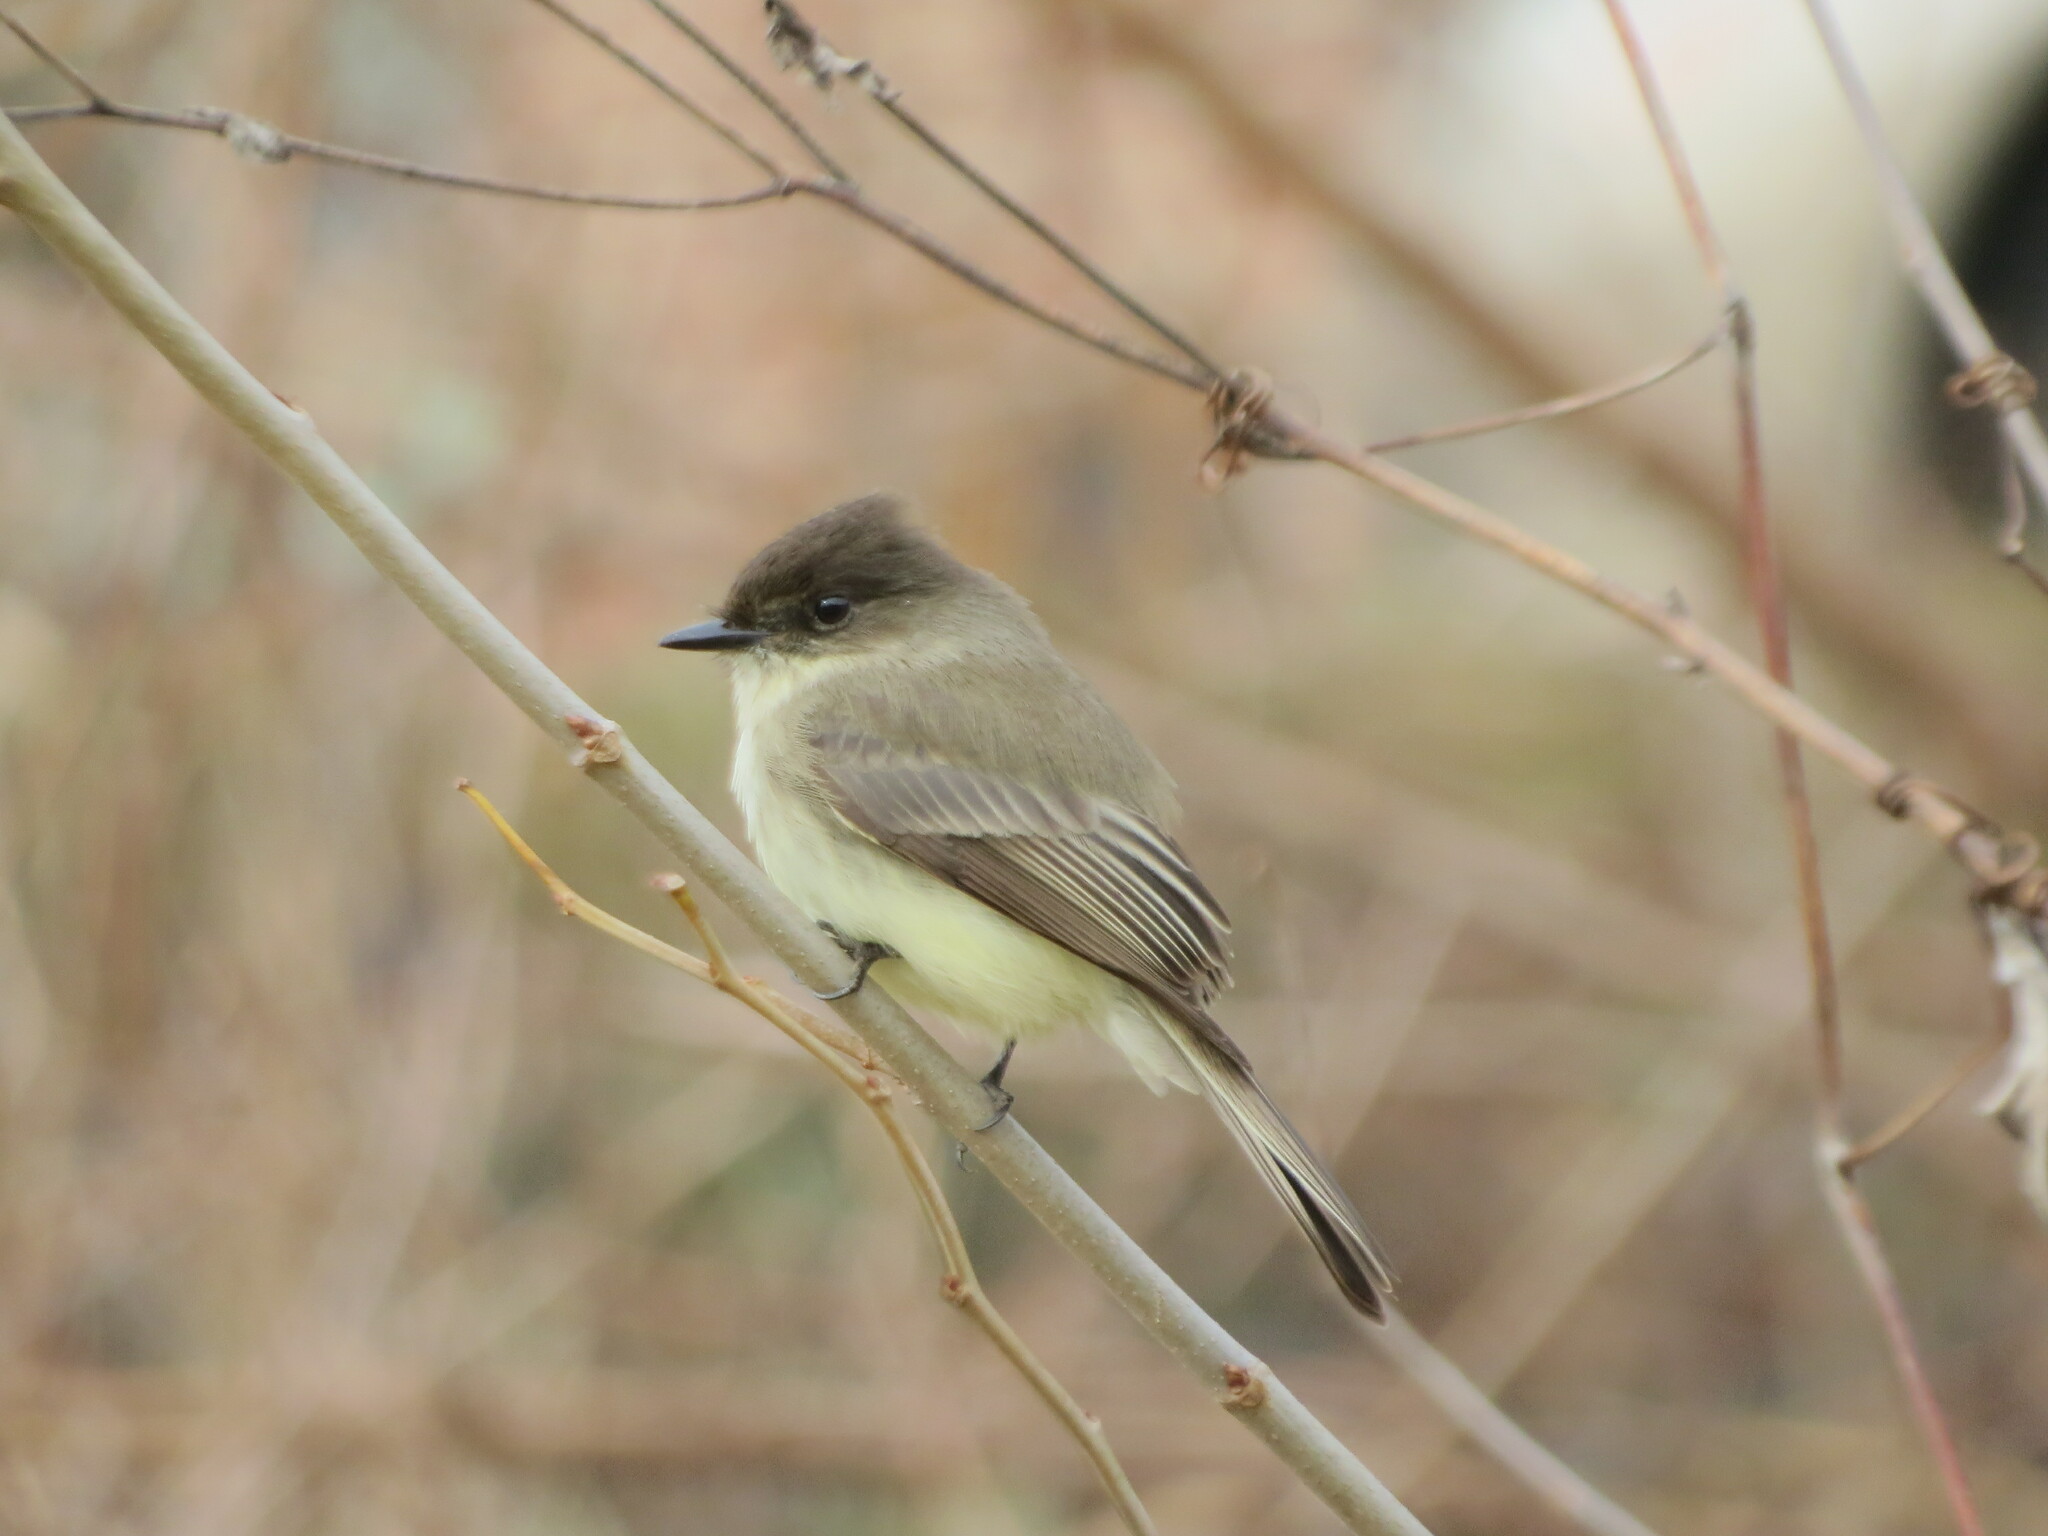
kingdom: Animalia
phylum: Chordata
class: Aves
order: Passeriformes
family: Tyrannidae
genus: Sayornis
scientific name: Sayornis phoebe
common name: Eastern phoebe
